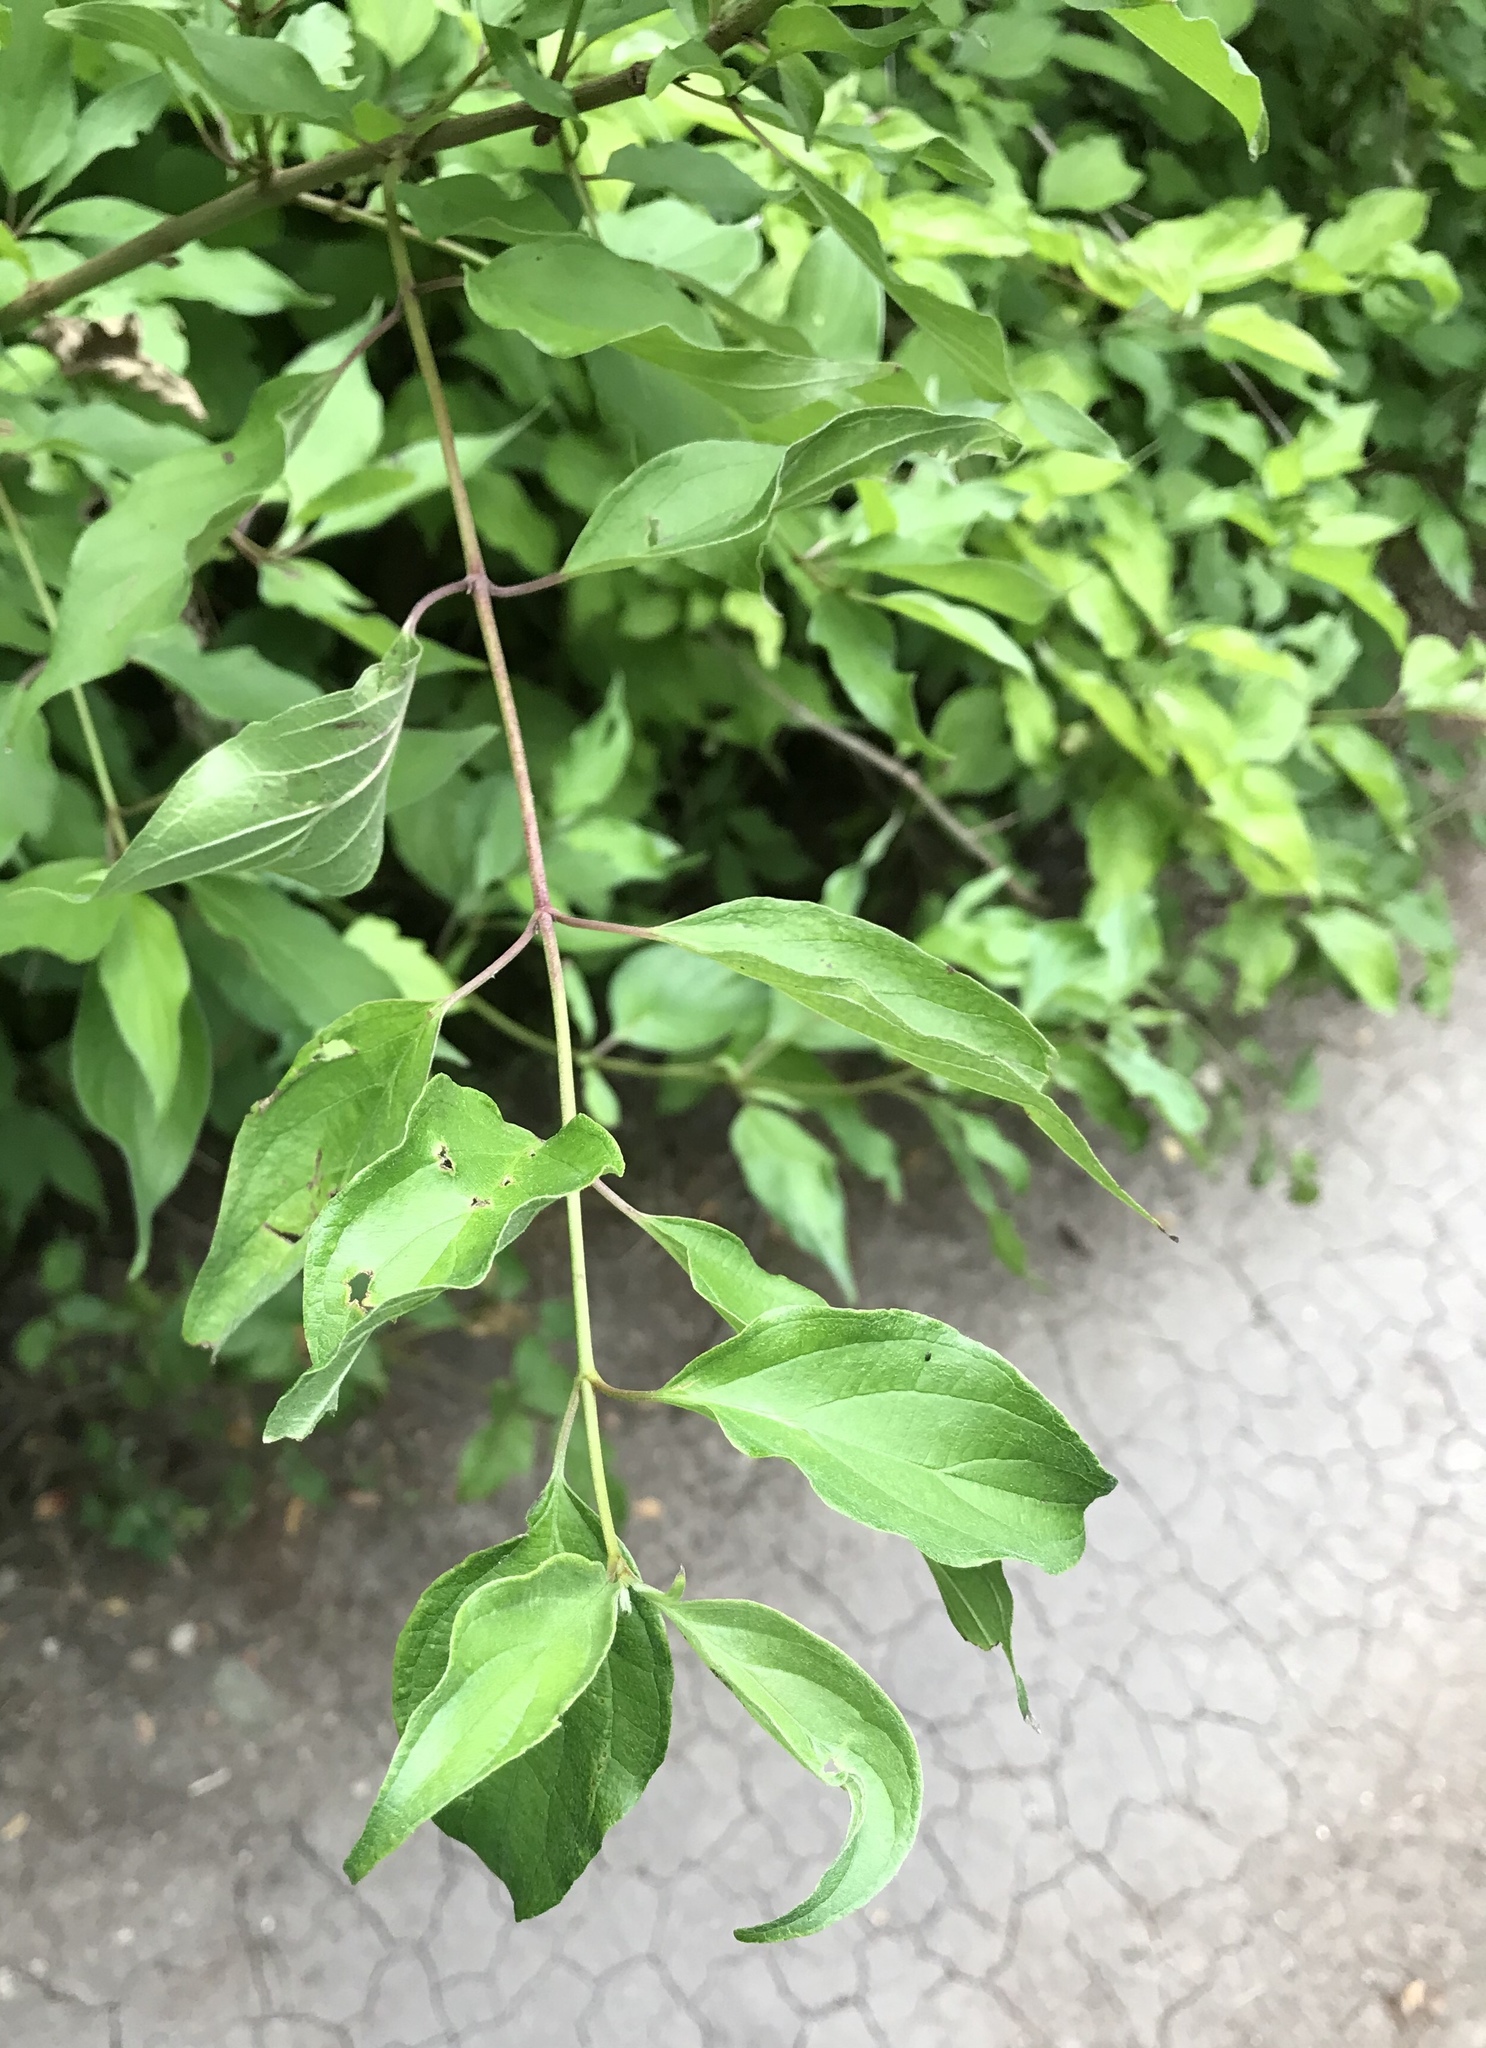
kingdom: Plantae
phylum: Tracheophyta
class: Magnoliopsida
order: Cornales
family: Cornaceae
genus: Cornus
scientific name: Cornus drummondii
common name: Rough-leaf dogwood
